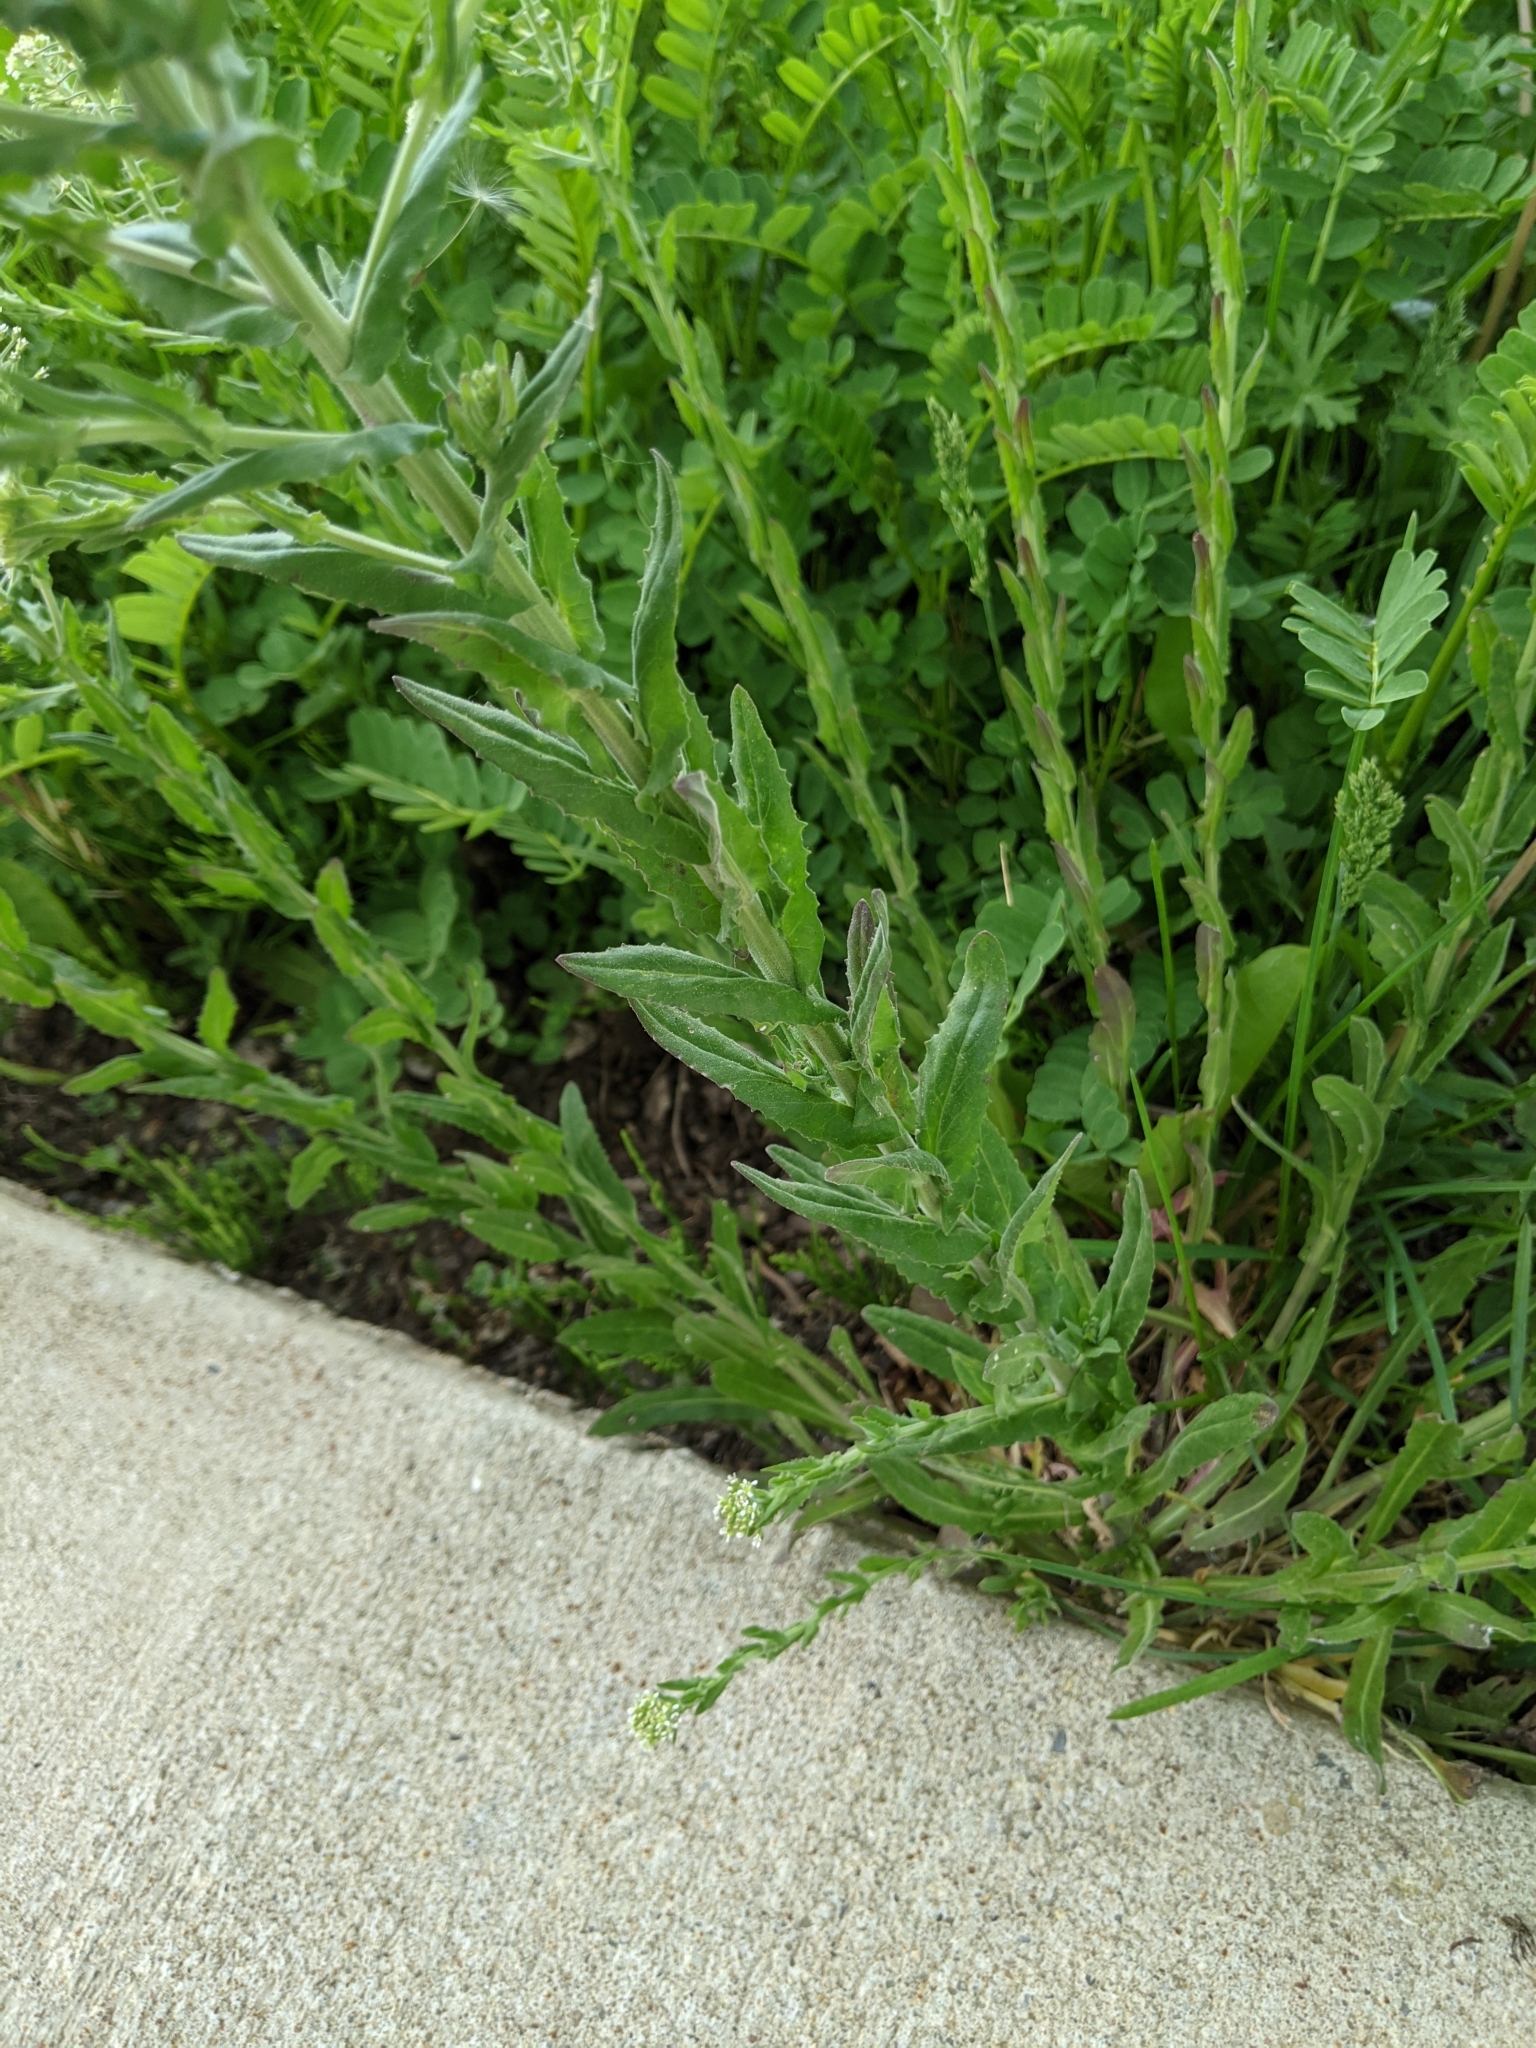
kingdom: Plantae
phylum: Tracheophyta
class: Magnoliopsida
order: Brassicales
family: Brassicaceae
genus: Lepidium
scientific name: Lepidium campestre
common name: Field pepperwort
